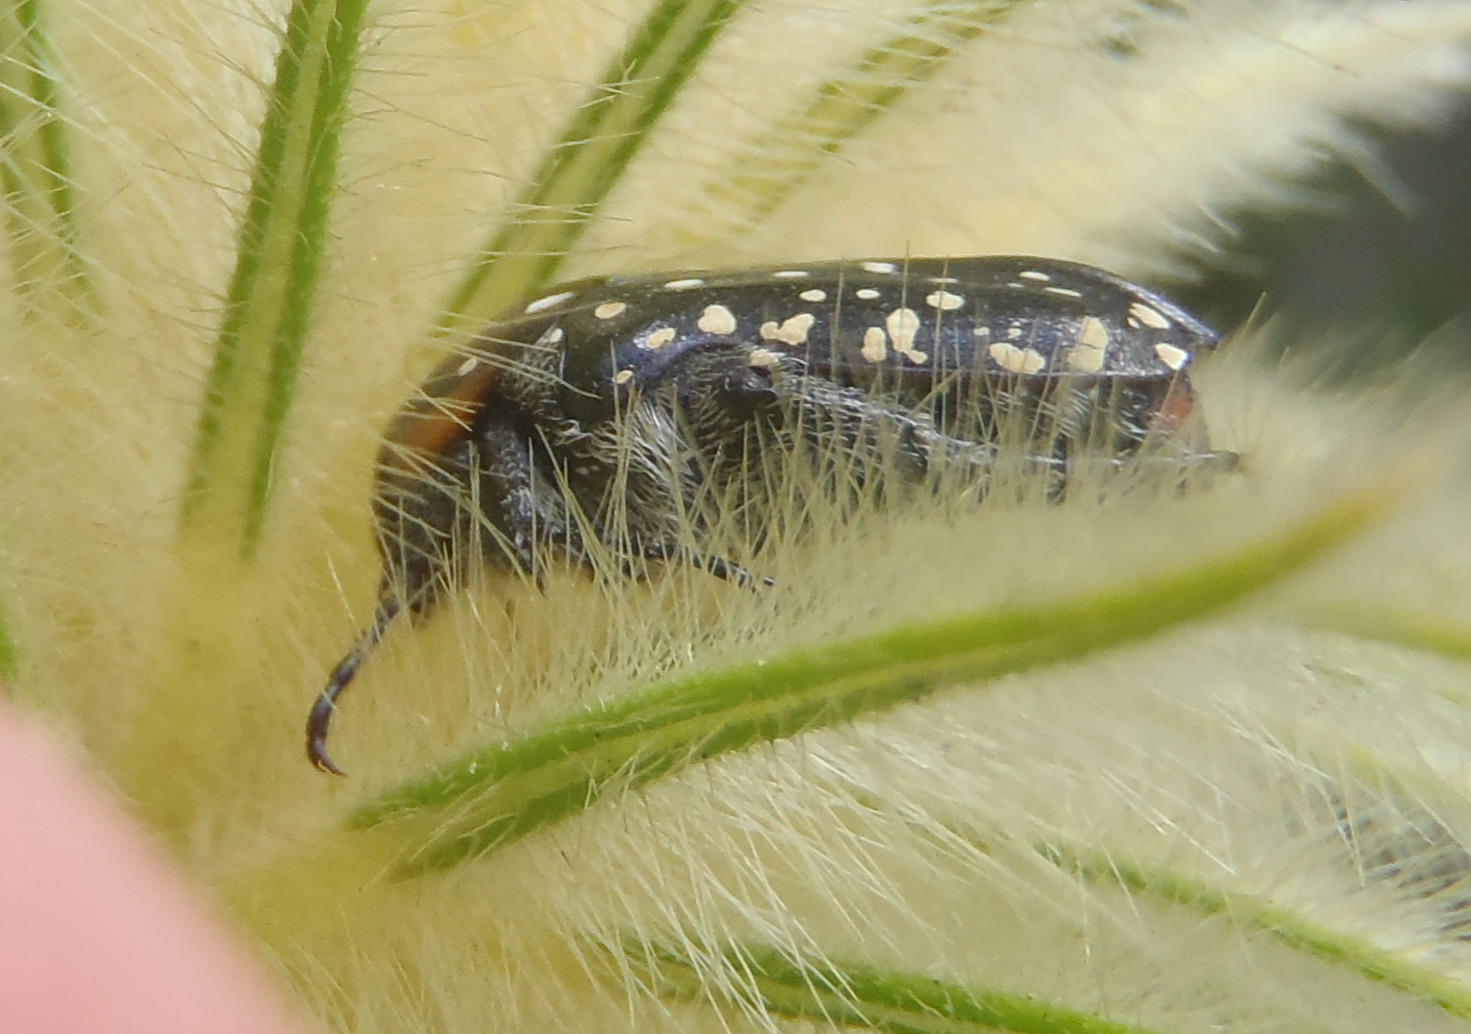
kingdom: Animalia
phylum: Arthropoda
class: Insecta
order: Coleoptera
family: Scarabaeidae
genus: Oxythyrea
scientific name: Oxythyrea
